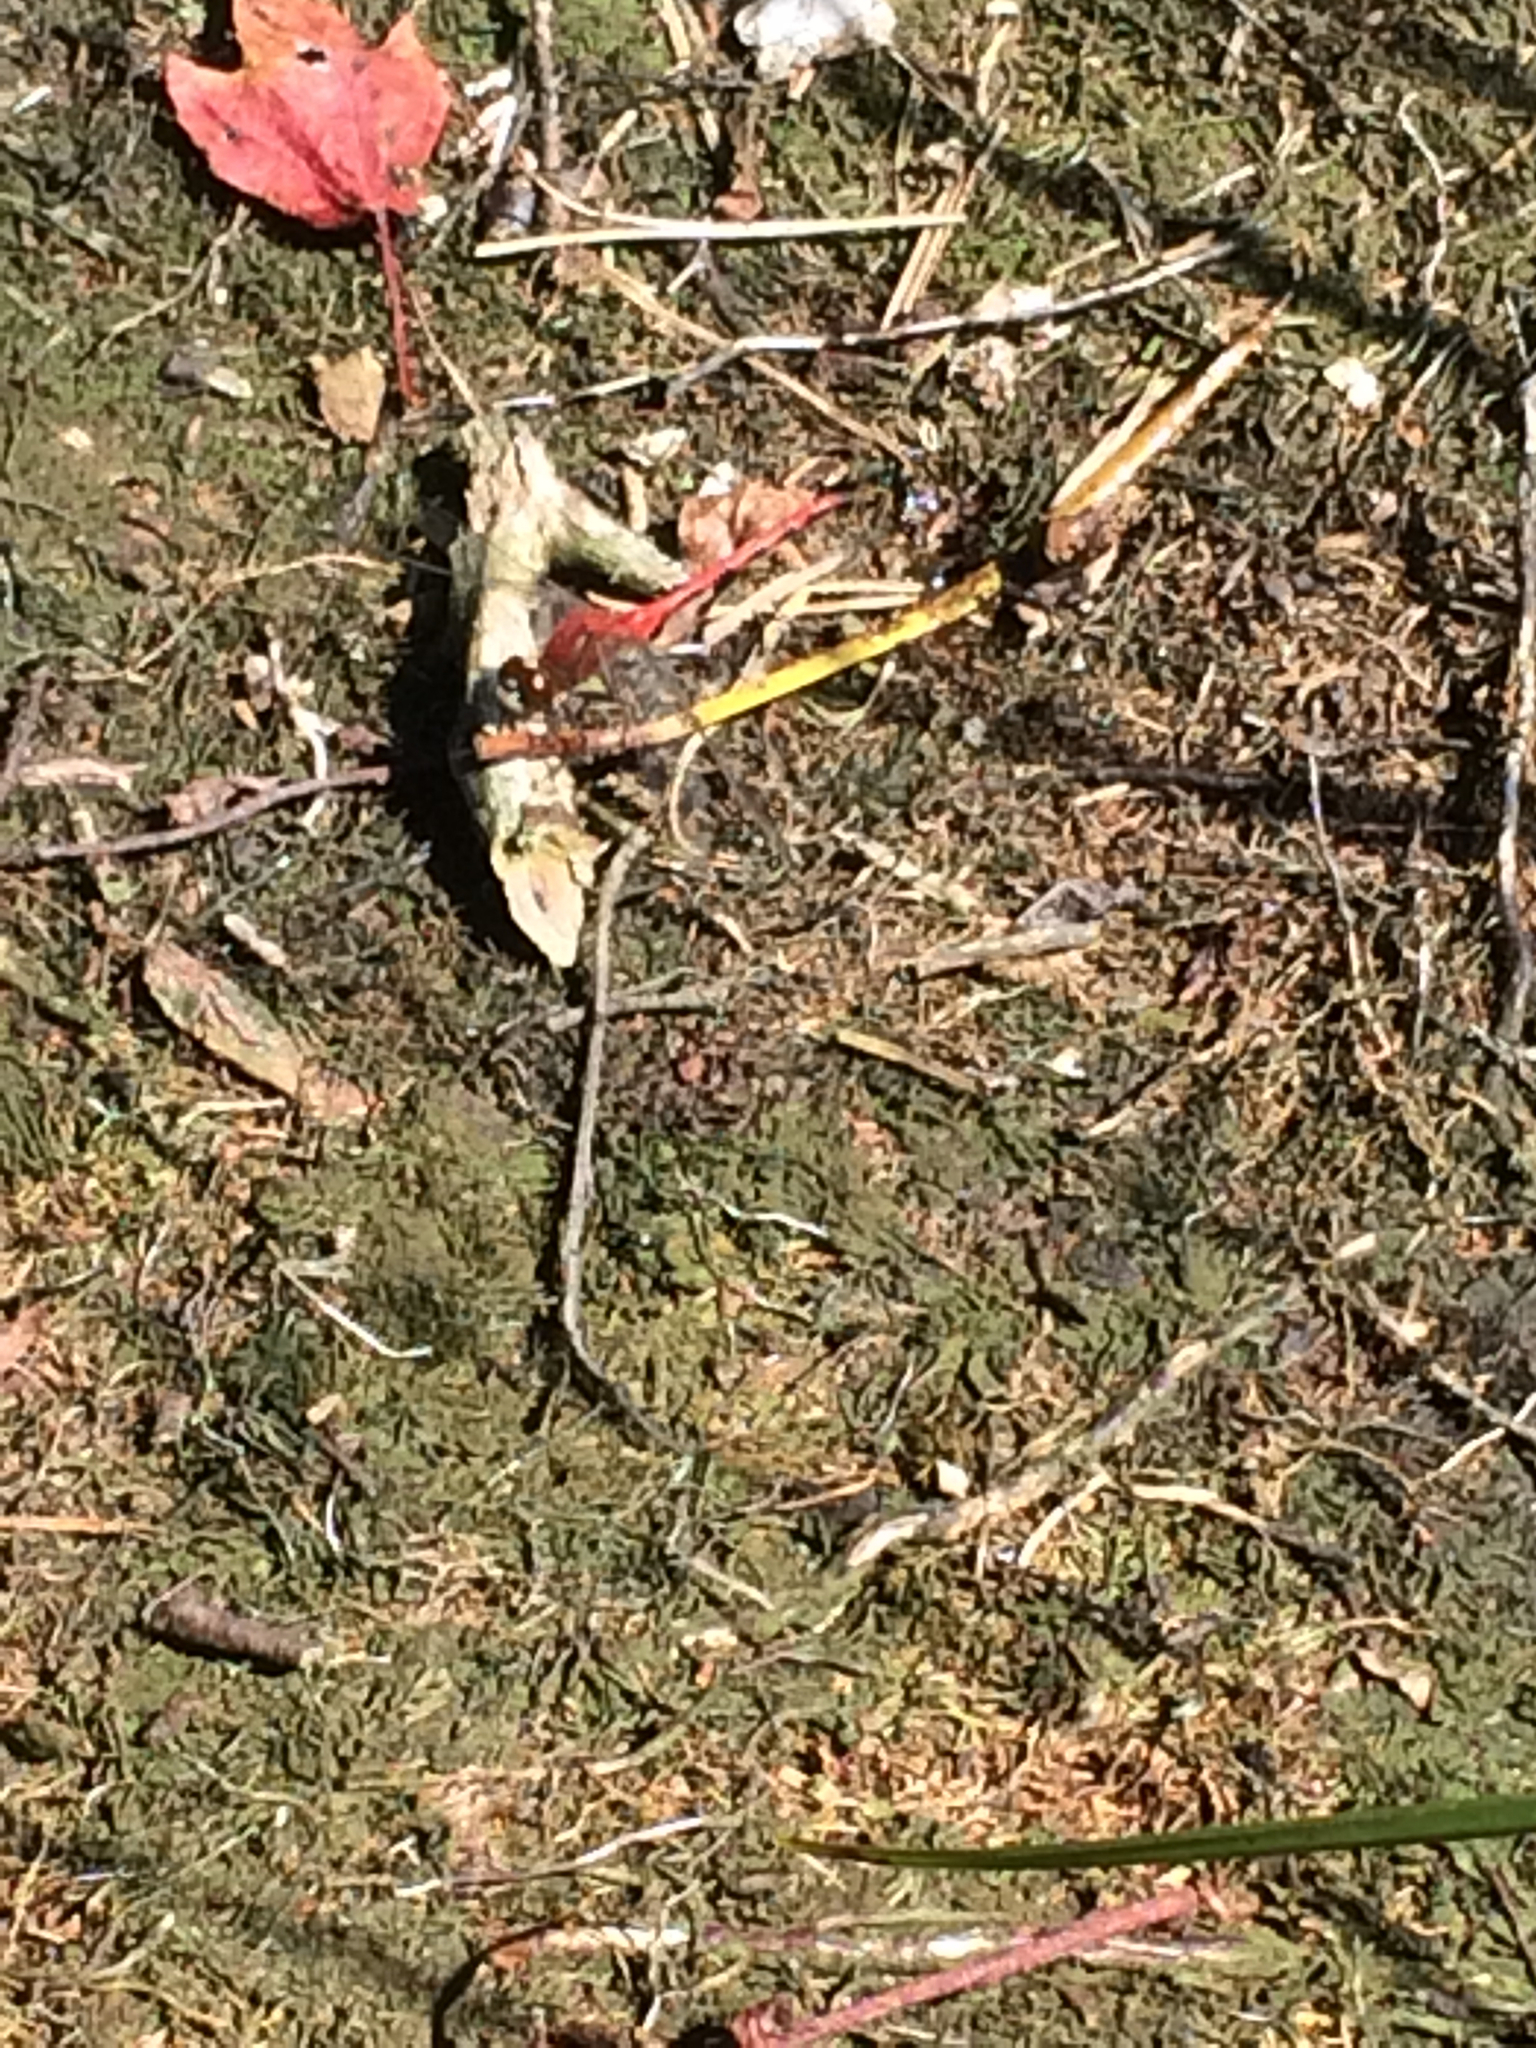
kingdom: Animalia
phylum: Arthropoda
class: Insecta
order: Odonata
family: Libellulidae
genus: Sympetrum
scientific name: Sympetrum obtrusum
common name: White-faced meadowhawk
